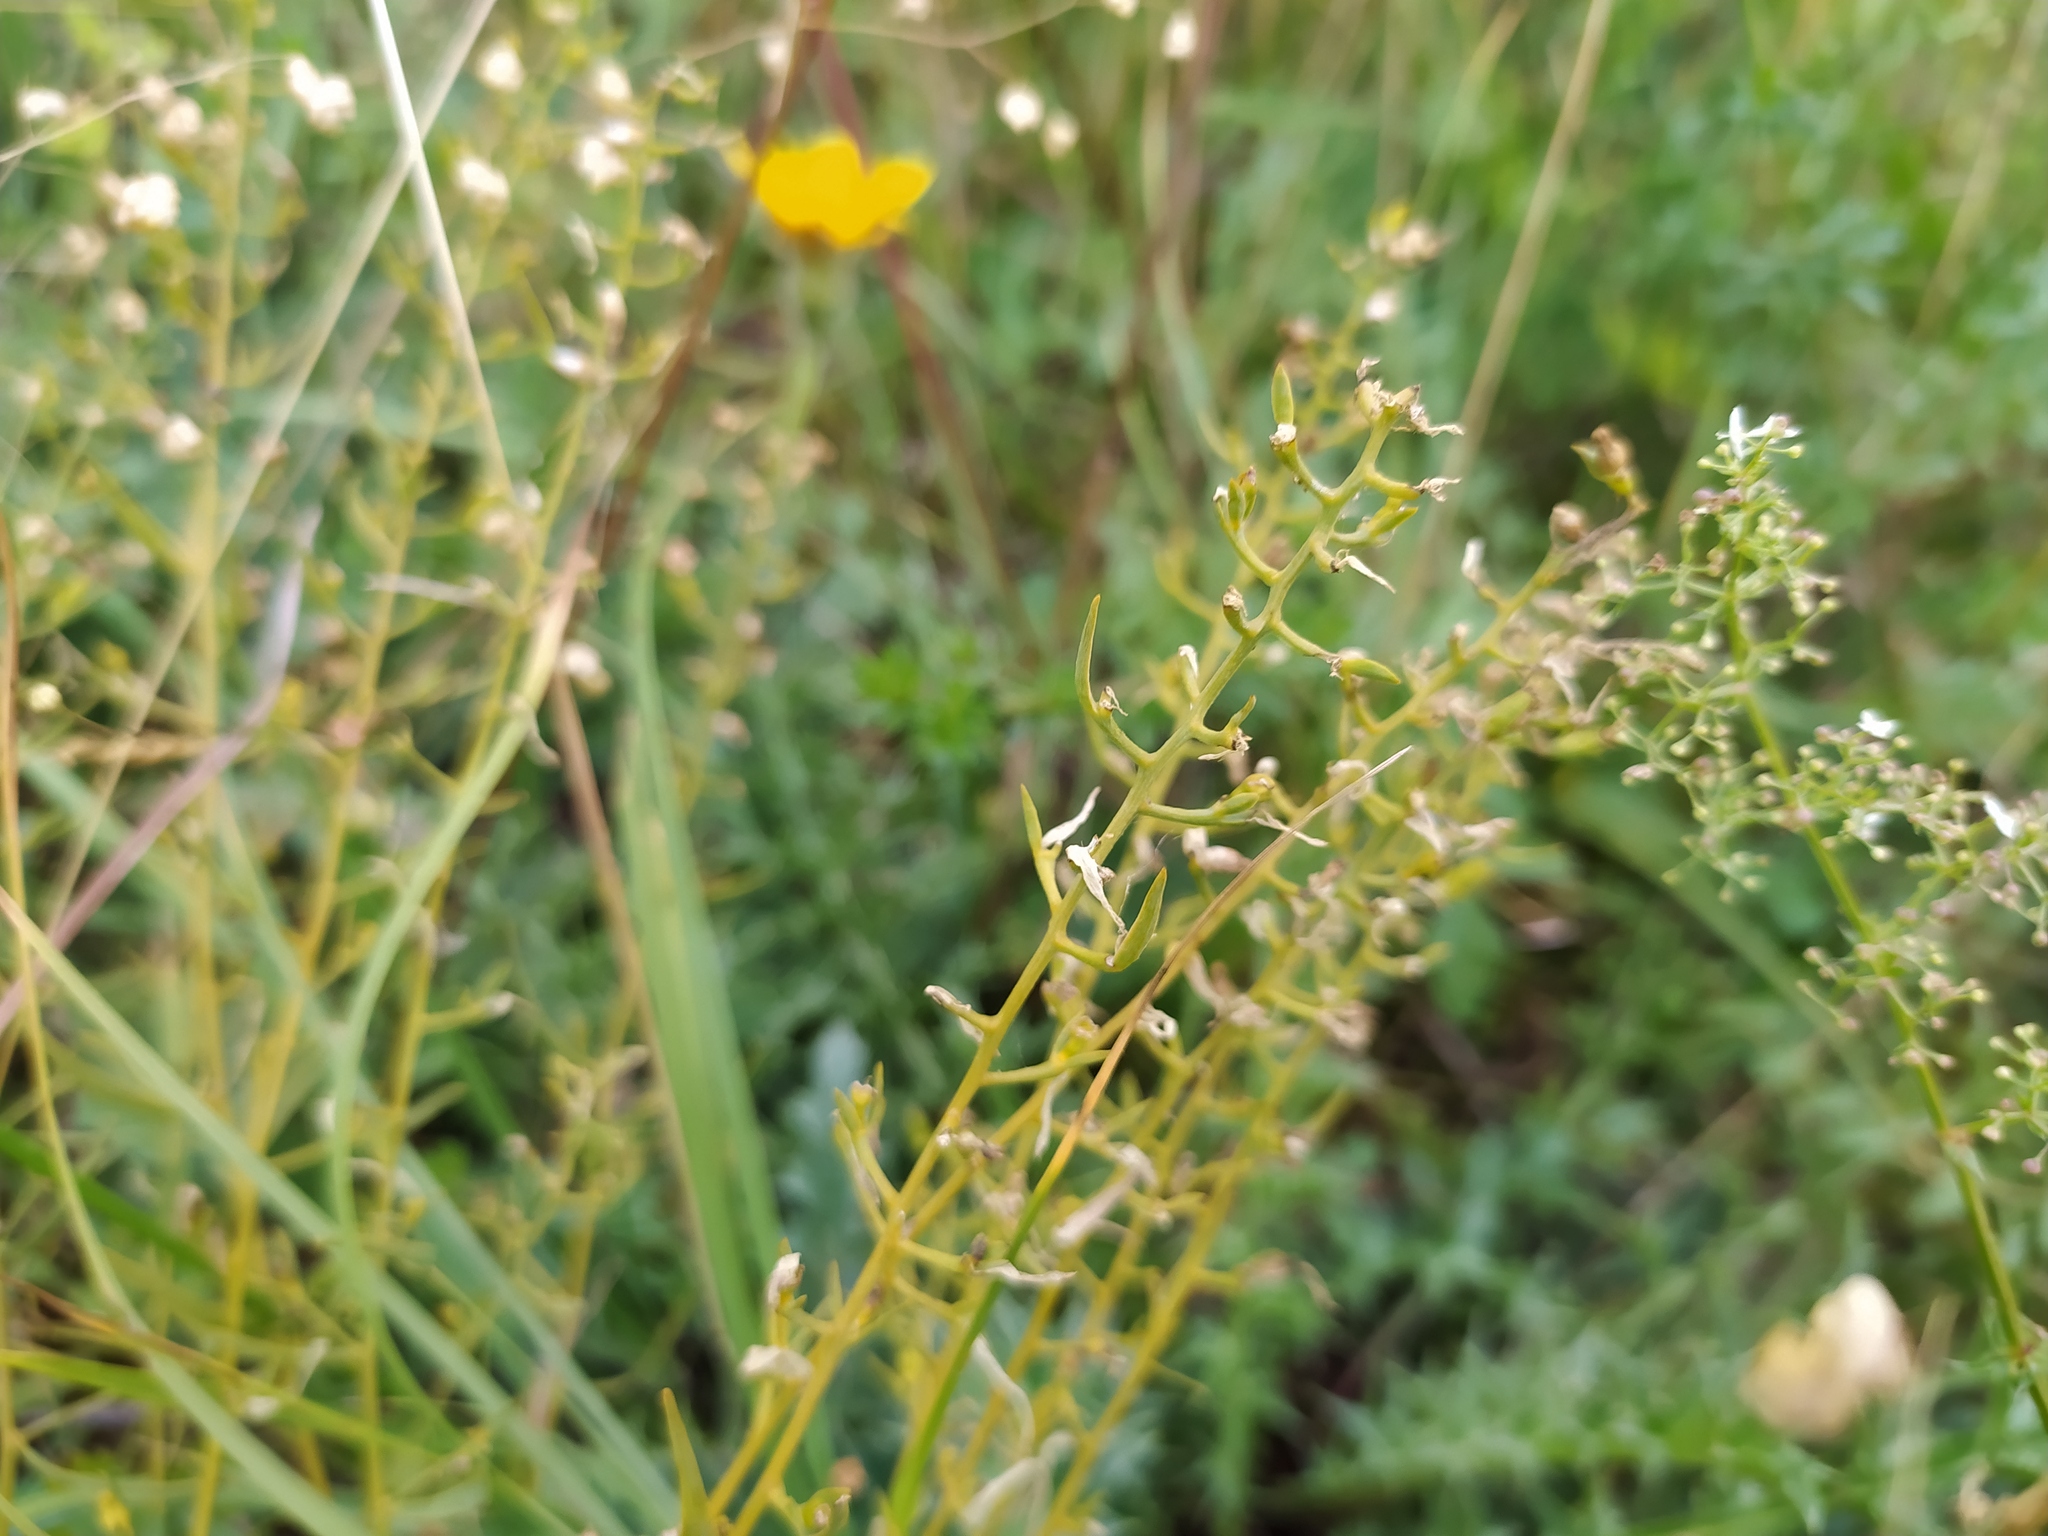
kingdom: Plantae
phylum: Tracheophyta
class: Magnoliopsida
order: Santalales
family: Thesiaceae
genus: Thesium
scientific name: Thesium pyrenaicum
